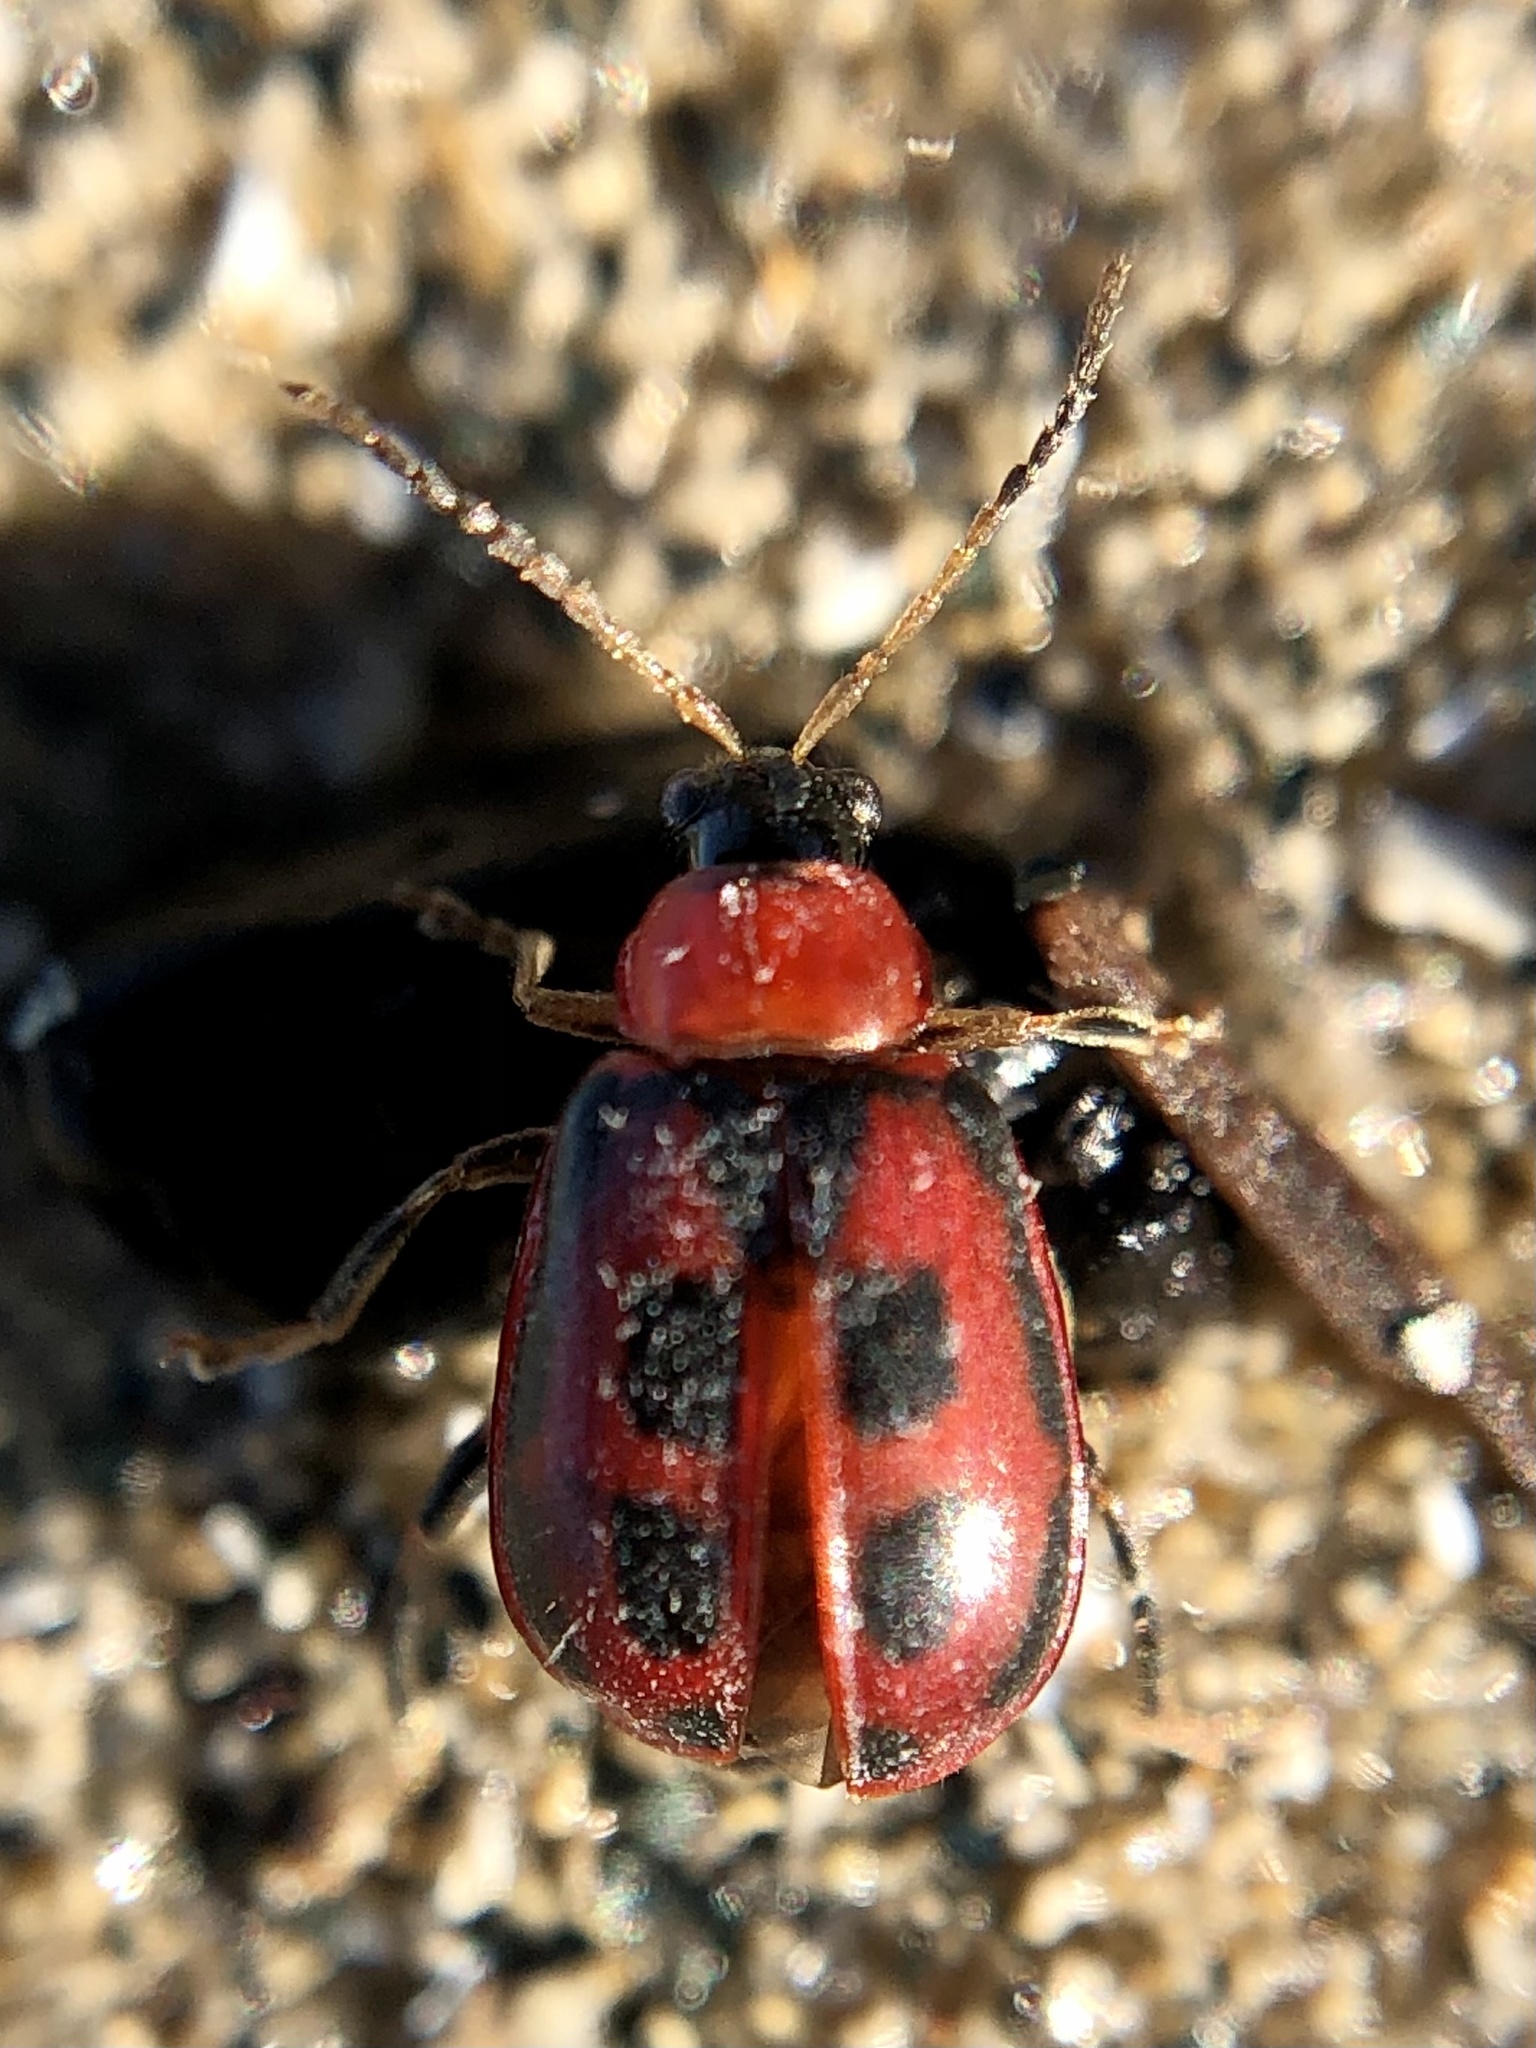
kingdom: Animalia
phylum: Arthropoda
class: Insecta
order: Coleoptera
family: Chrysomelidae
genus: Cerotoma
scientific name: Cerotoma trifurcata
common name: Bean leaf beetle
